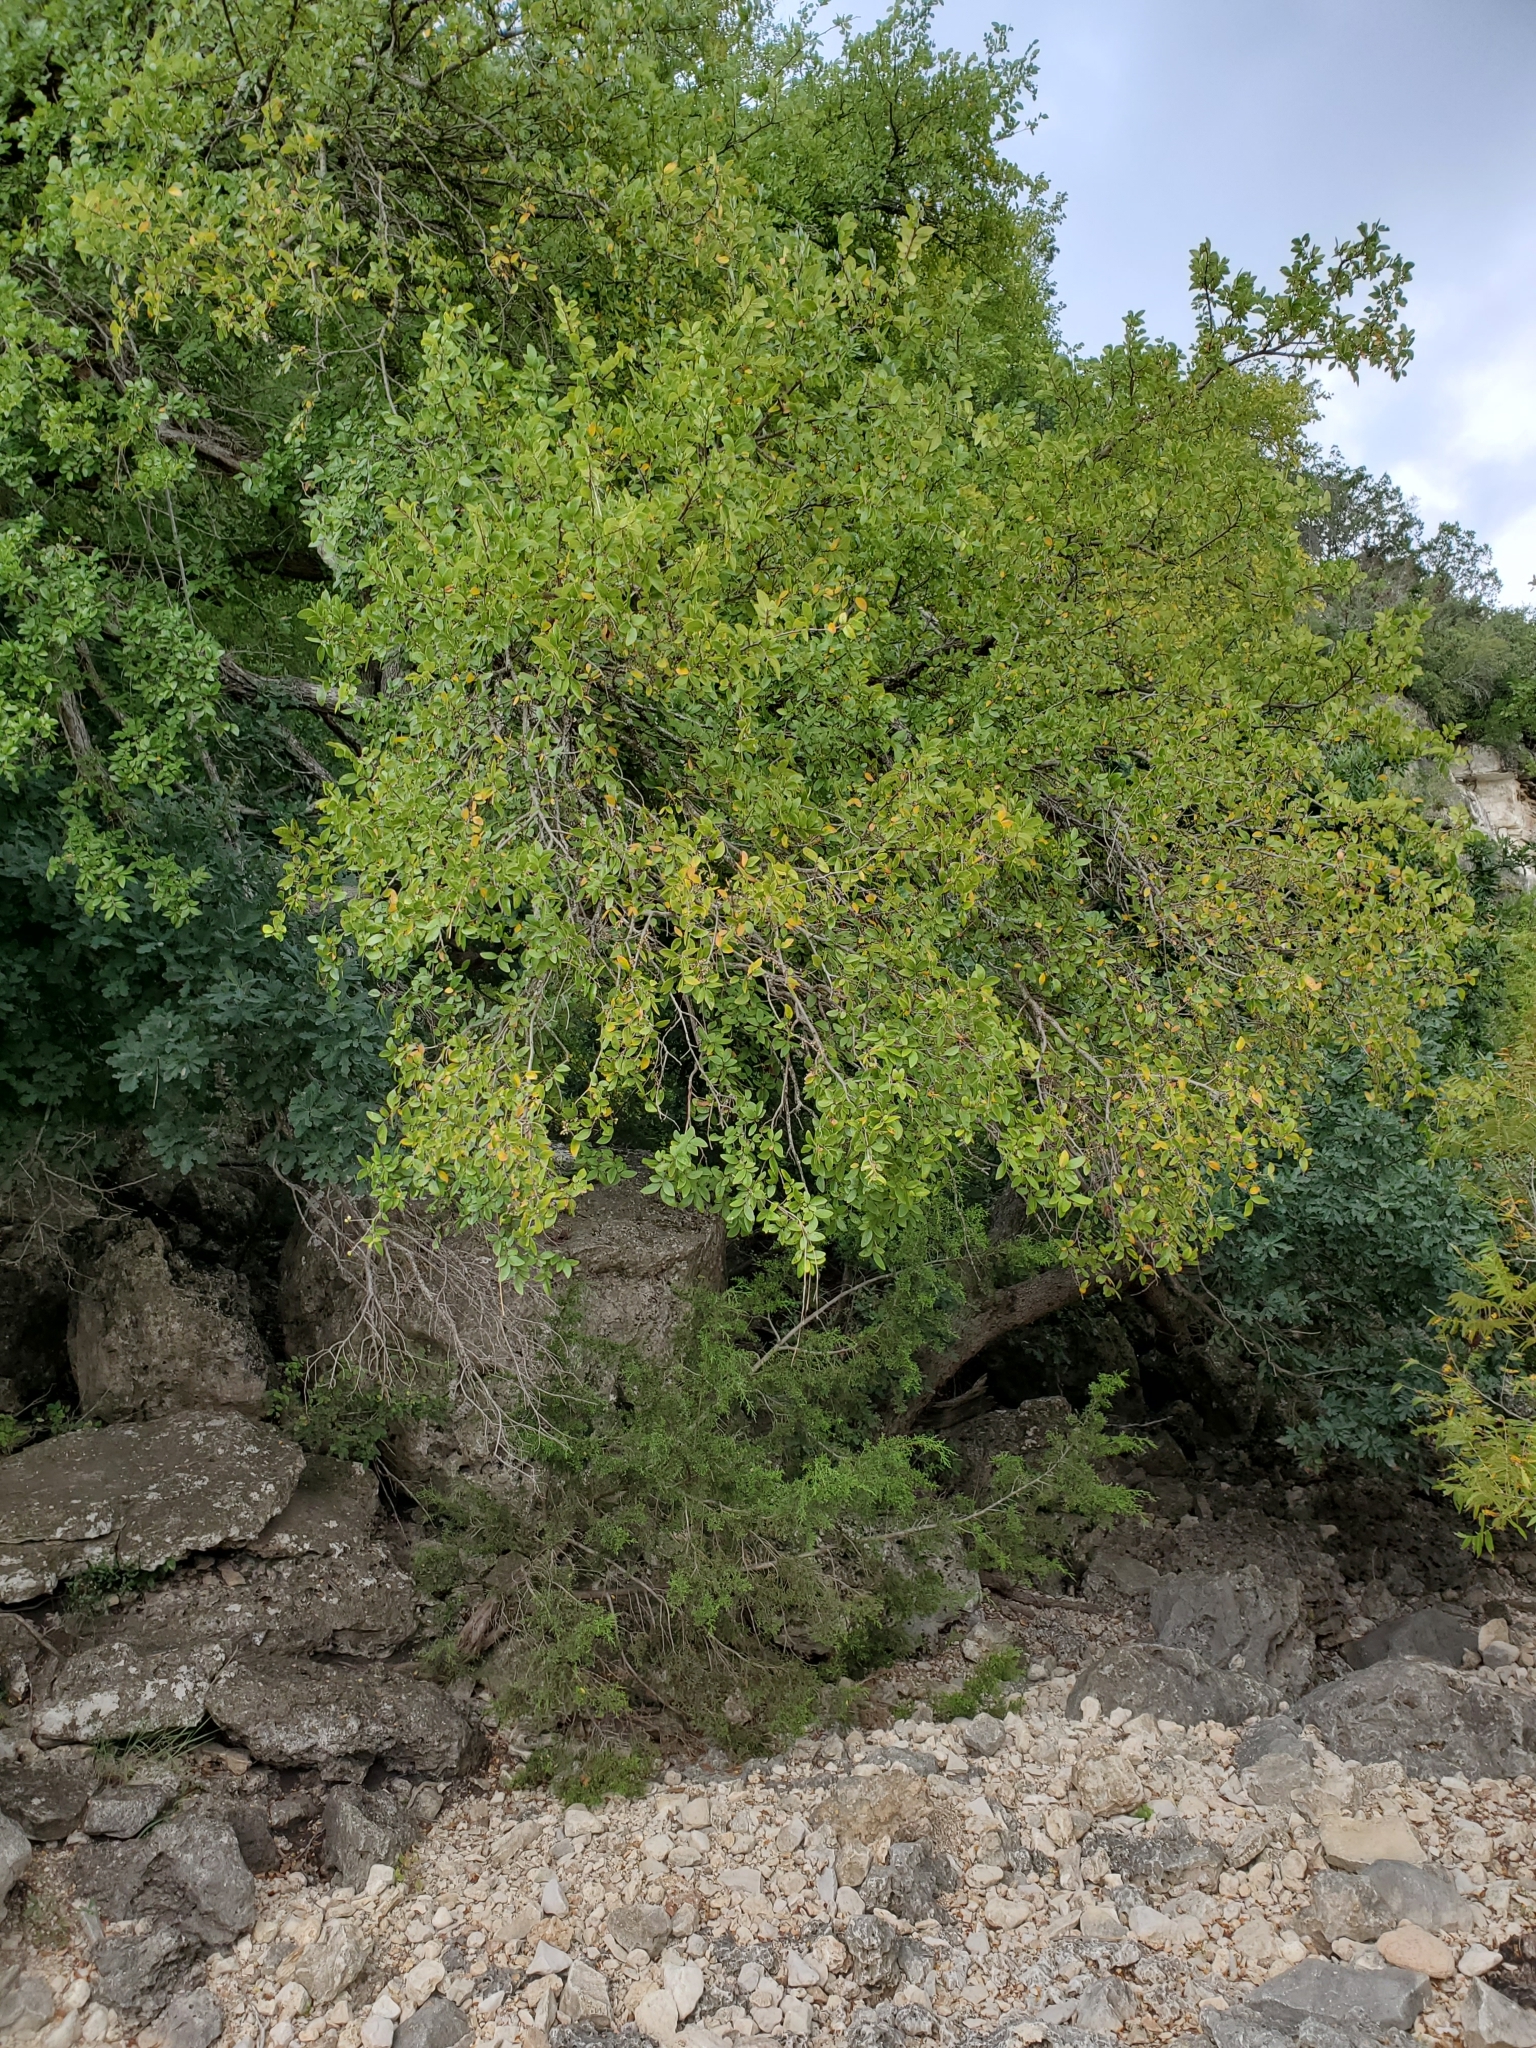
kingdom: Plantae
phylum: Tracheophyta
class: Magnoliopsida
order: Rosales
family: Ulmaceae
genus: Ulmus
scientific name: Ulmus crassifolia
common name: Basket elm
